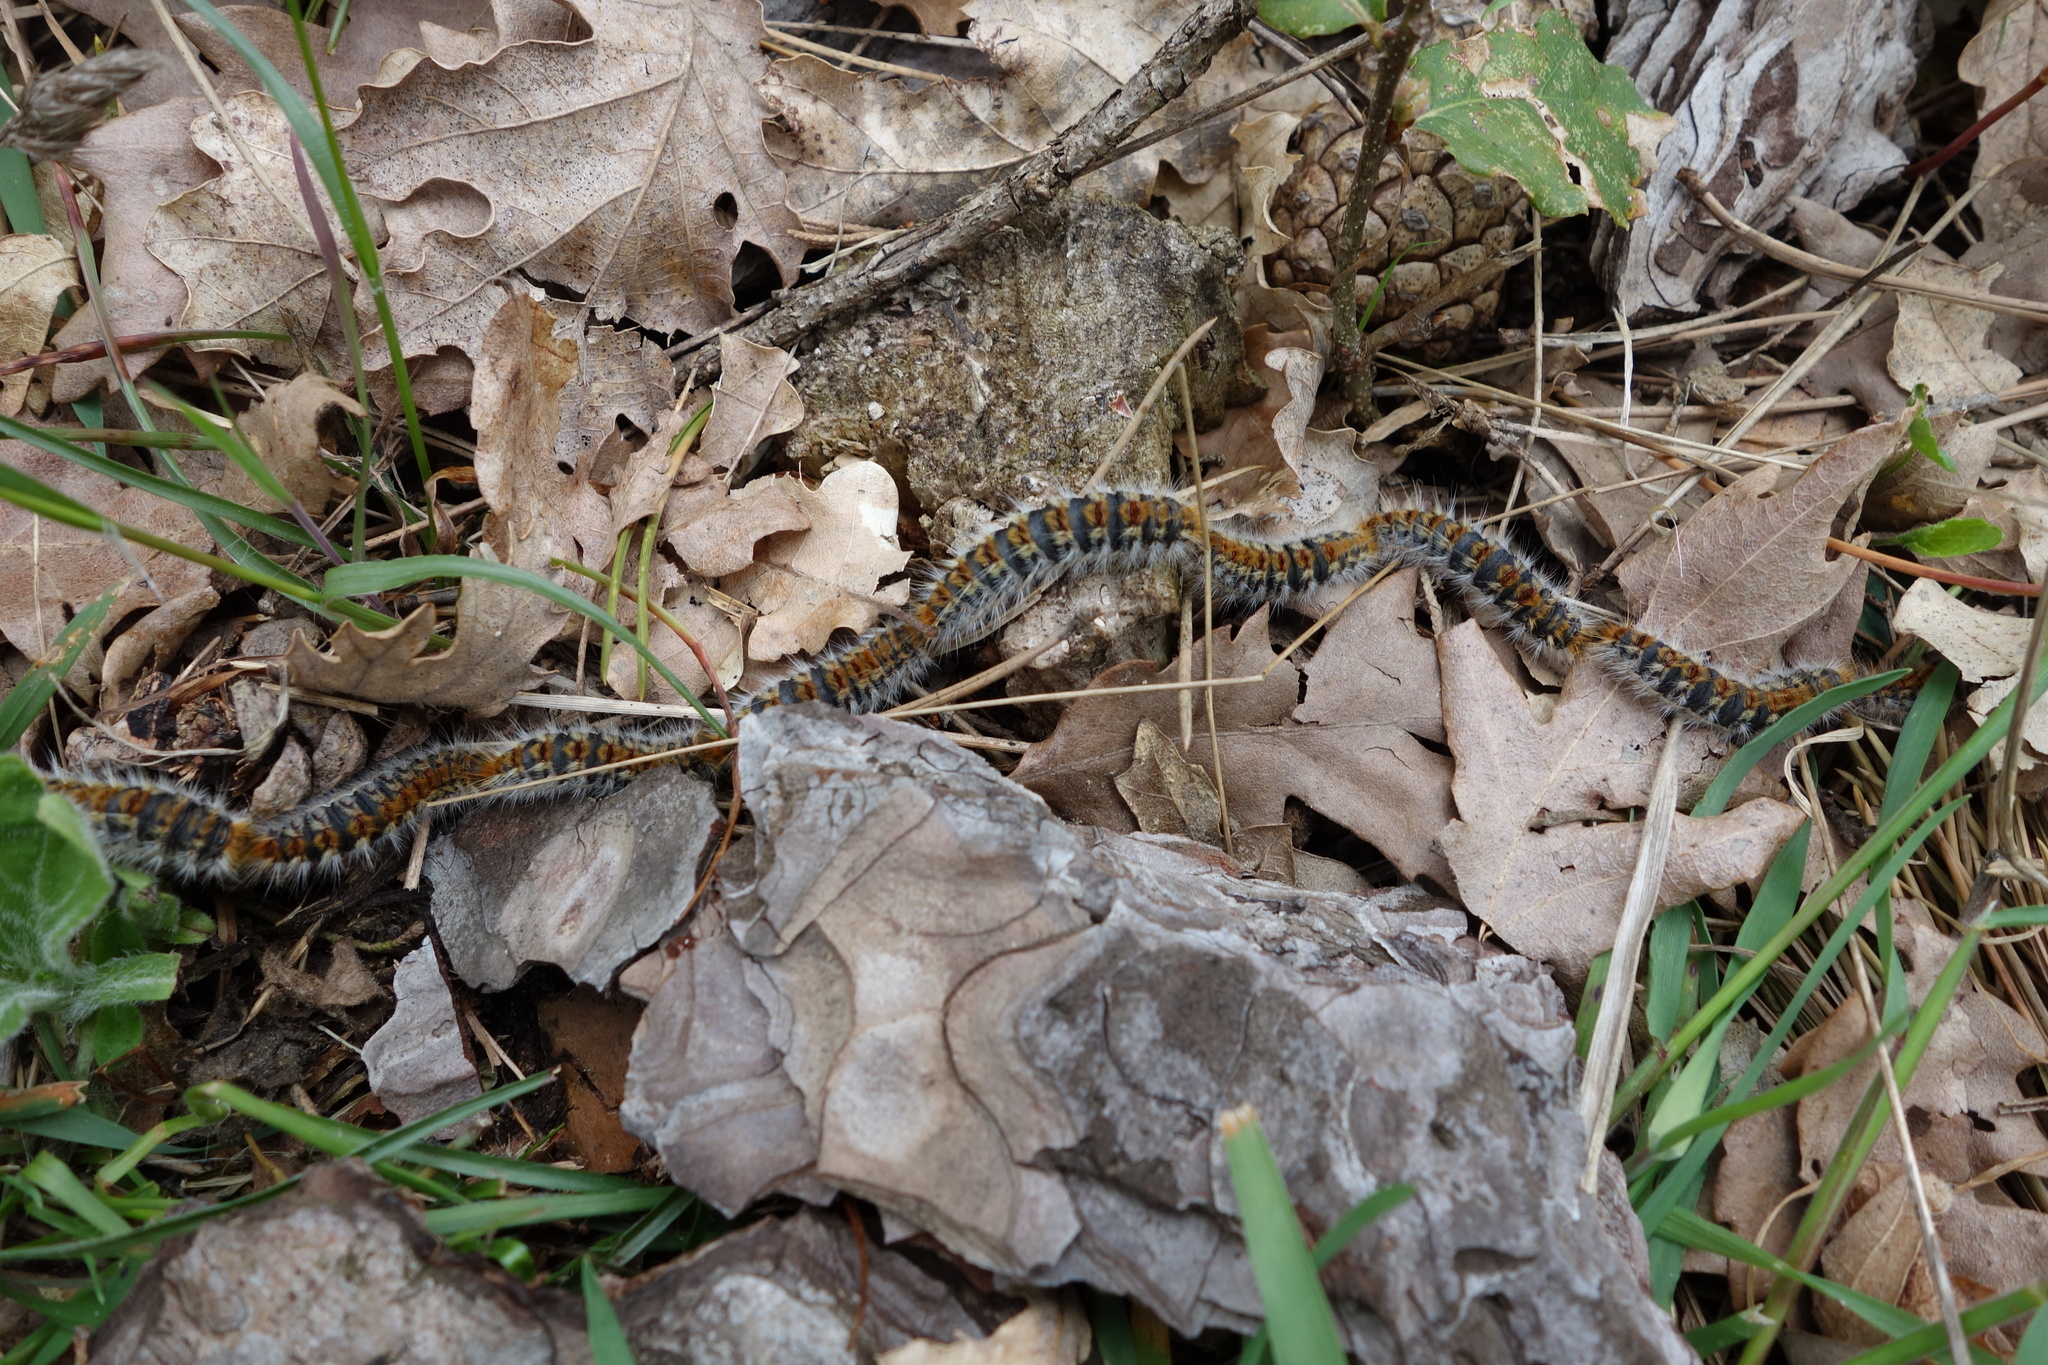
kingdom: Animalia
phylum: Arthropoda
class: Insecta
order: Lepidoptera
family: Notodontidae
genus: Thaumetopoea
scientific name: Thaumetopoea pityocampa
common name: Pine processionary
